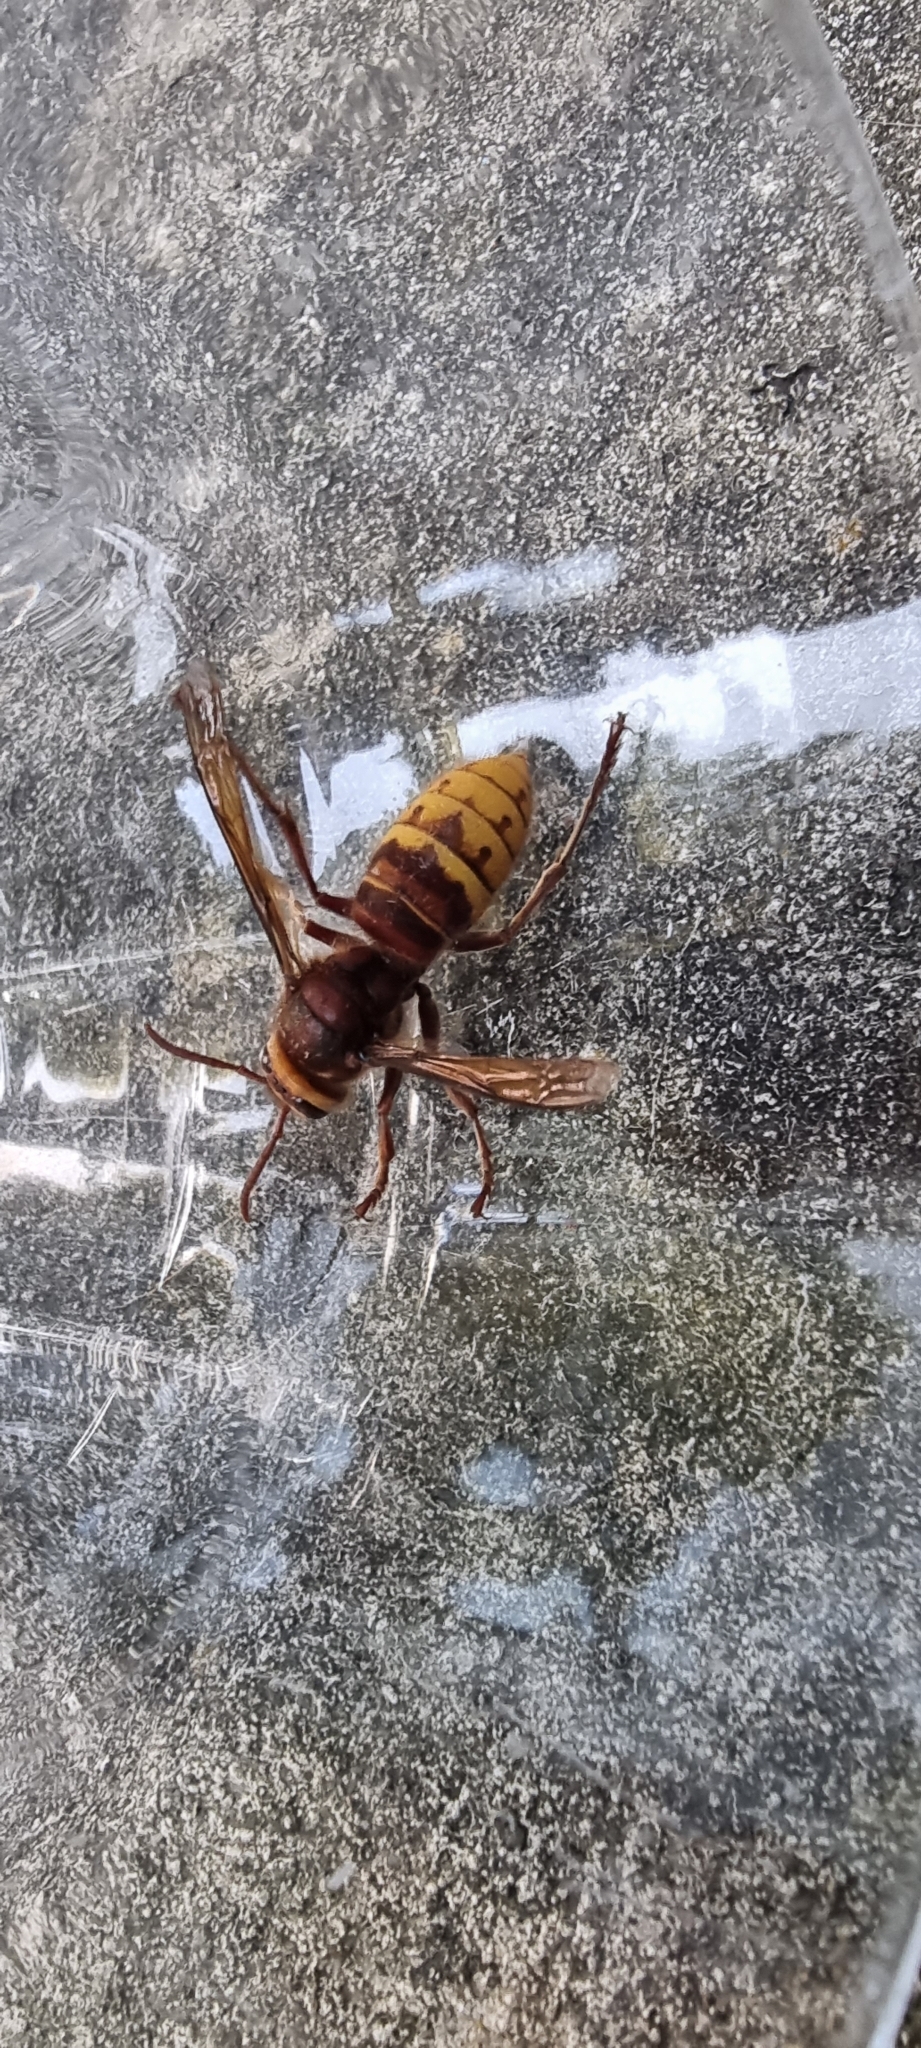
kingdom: Animalia
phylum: Arthropoda
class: Insecta
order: Hymenoptera
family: Vespidae
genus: Vespa
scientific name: Vespa crabro
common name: Hornet
